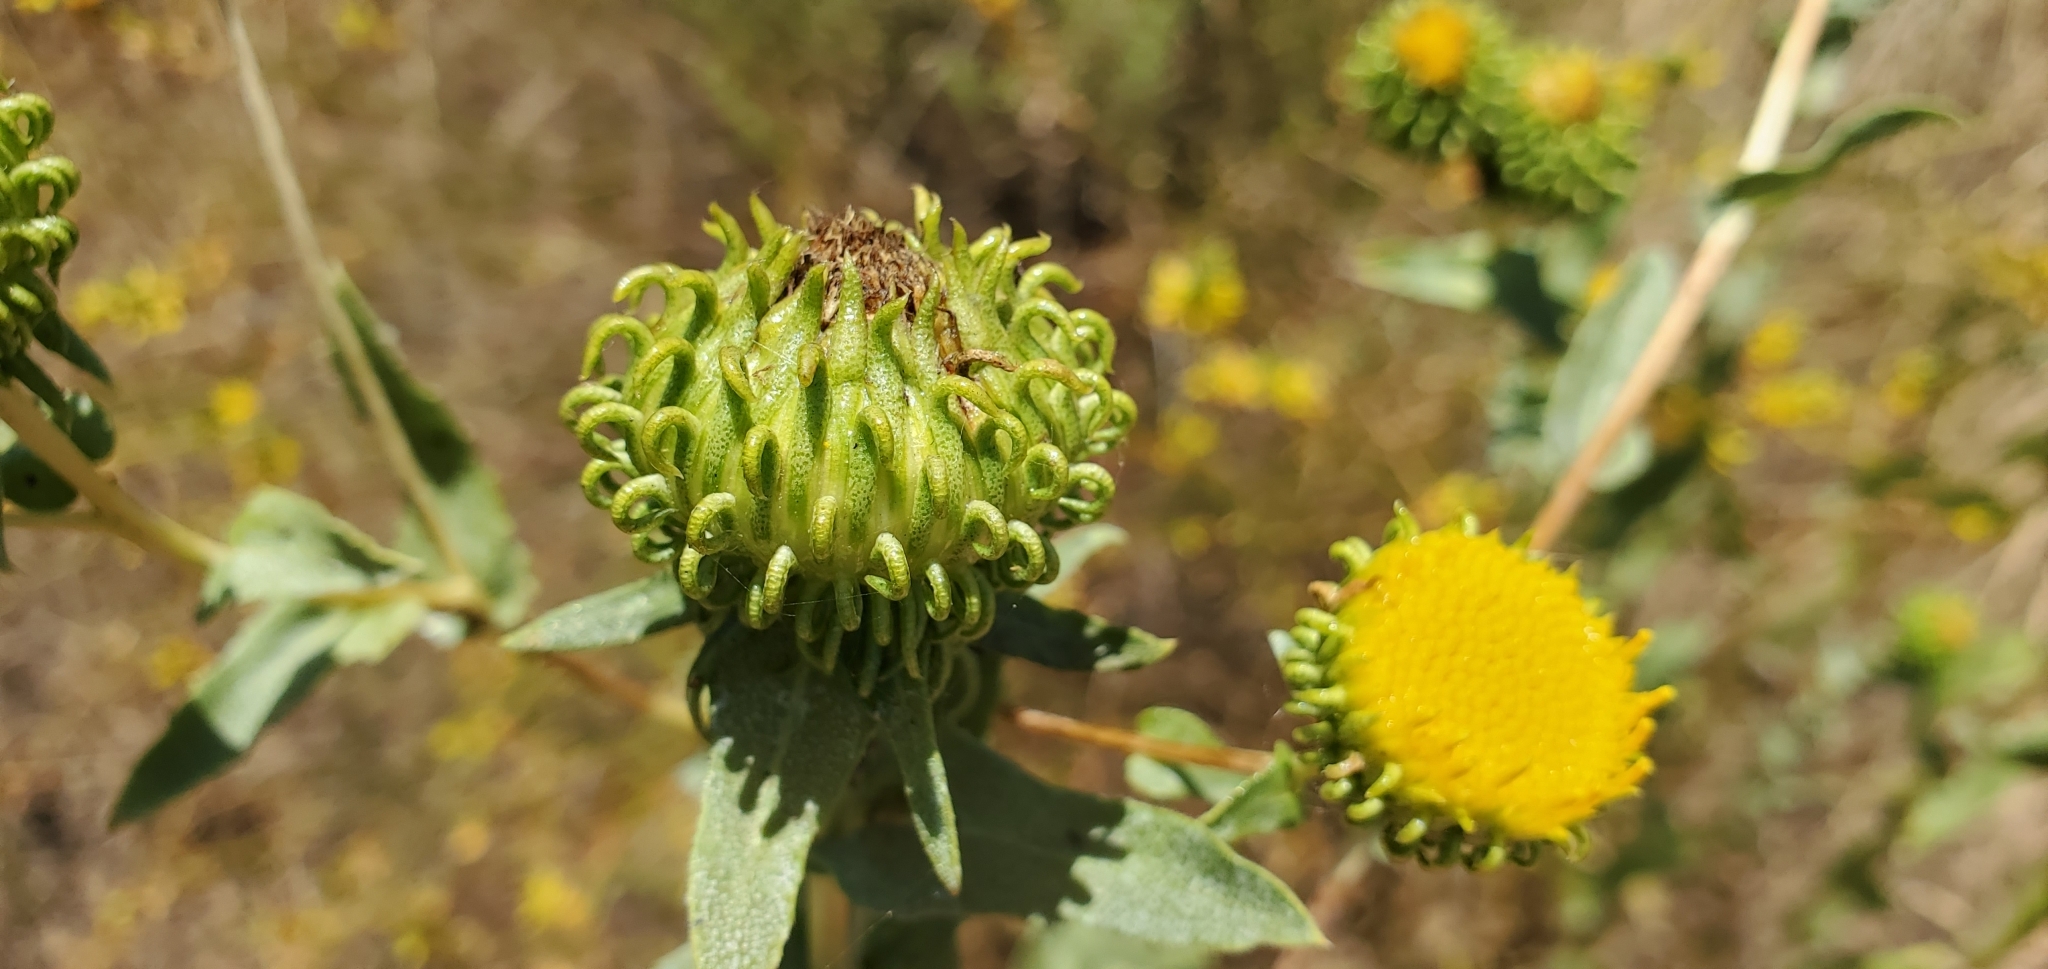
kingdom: Plantae
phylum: Tracheophyta
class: Magnoliopsida
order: Asterales
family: Asteraceae
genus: Grindelia
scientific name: Grindelia hirsutula
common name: Hairy gumweed
